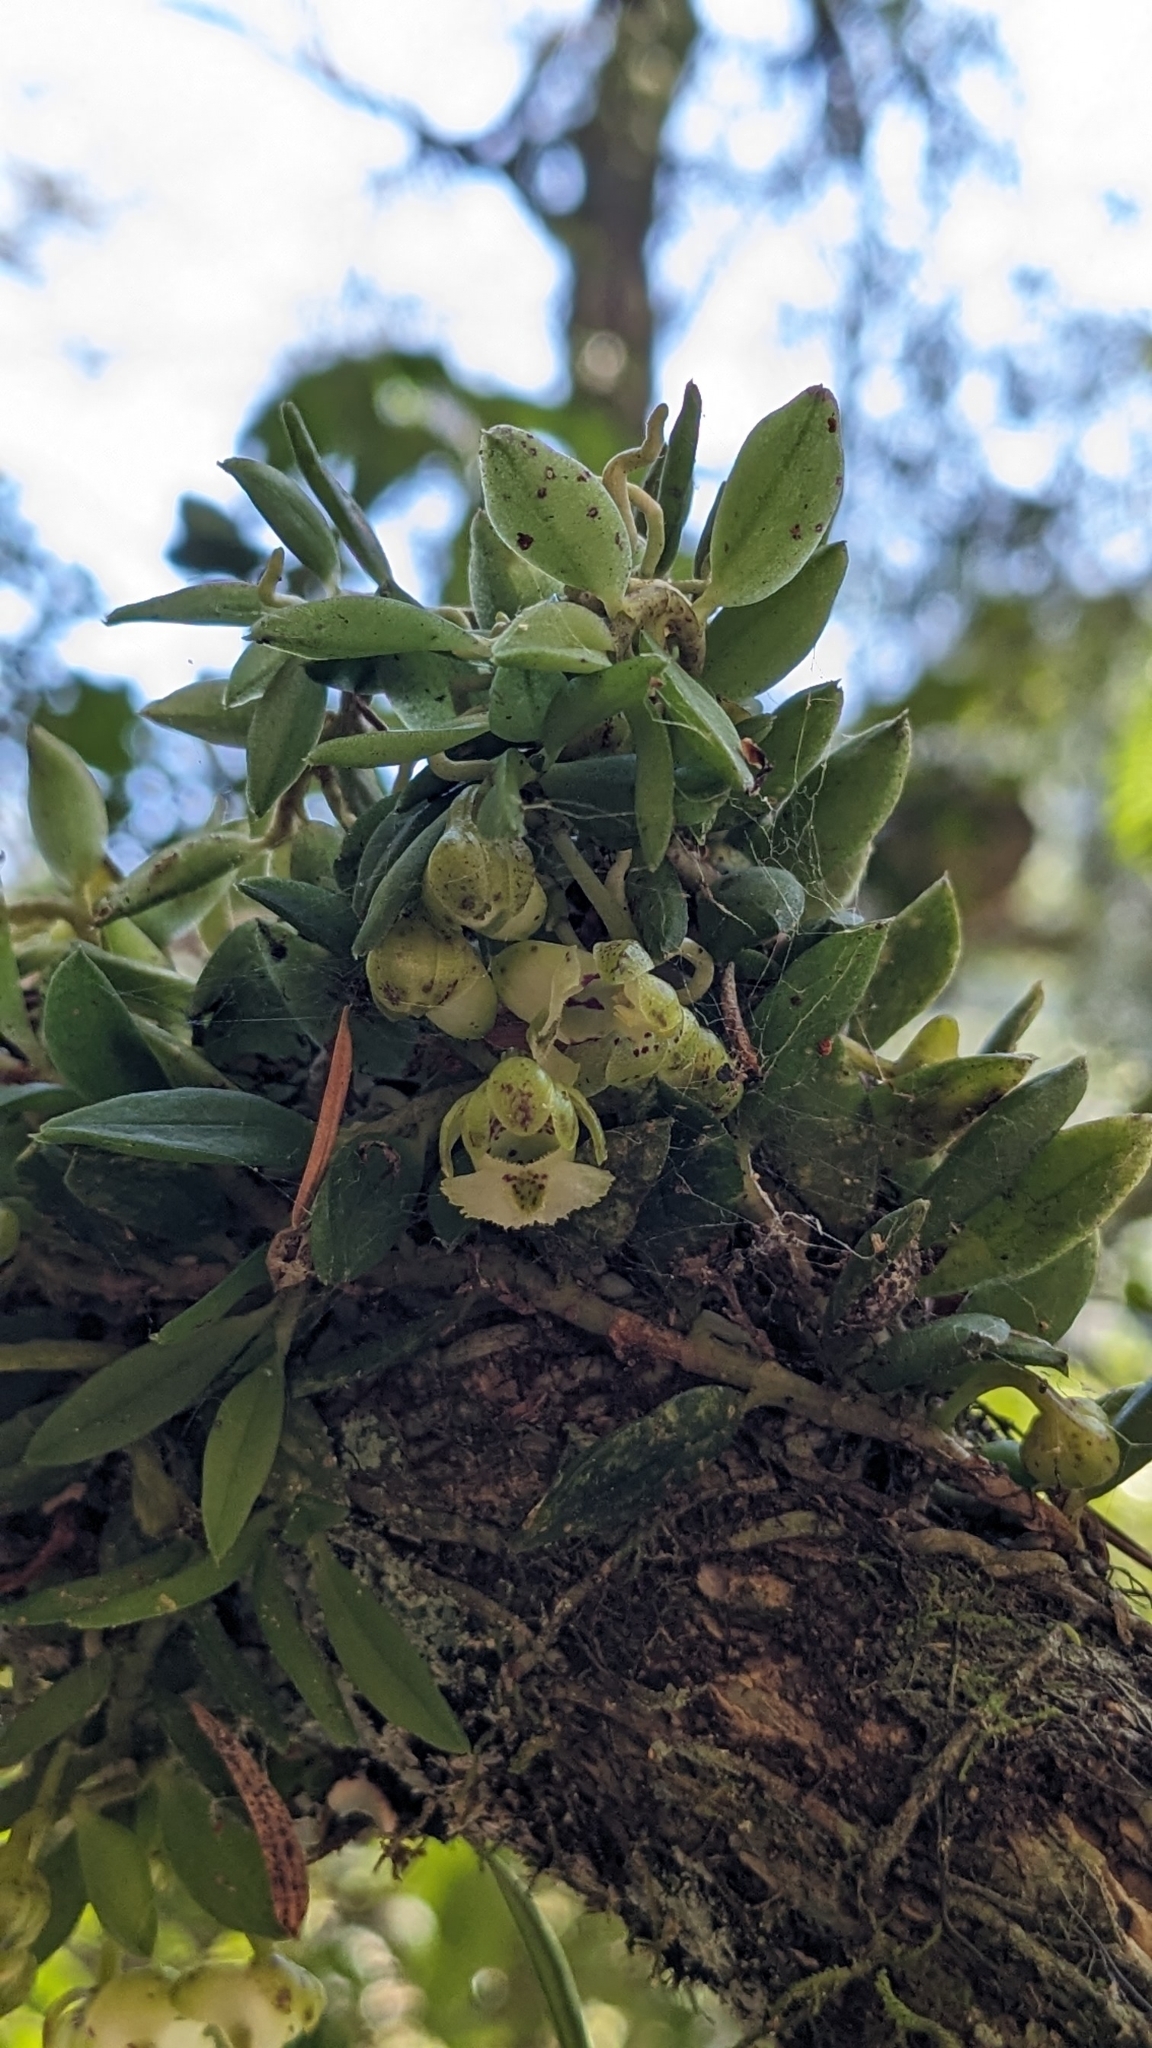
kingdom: Plantae
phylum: Tracheophyta
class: Liliopsida
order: Asparagales
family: Orchidaceae
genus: Gastrochilus
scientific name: Gastrochilus formosanus
